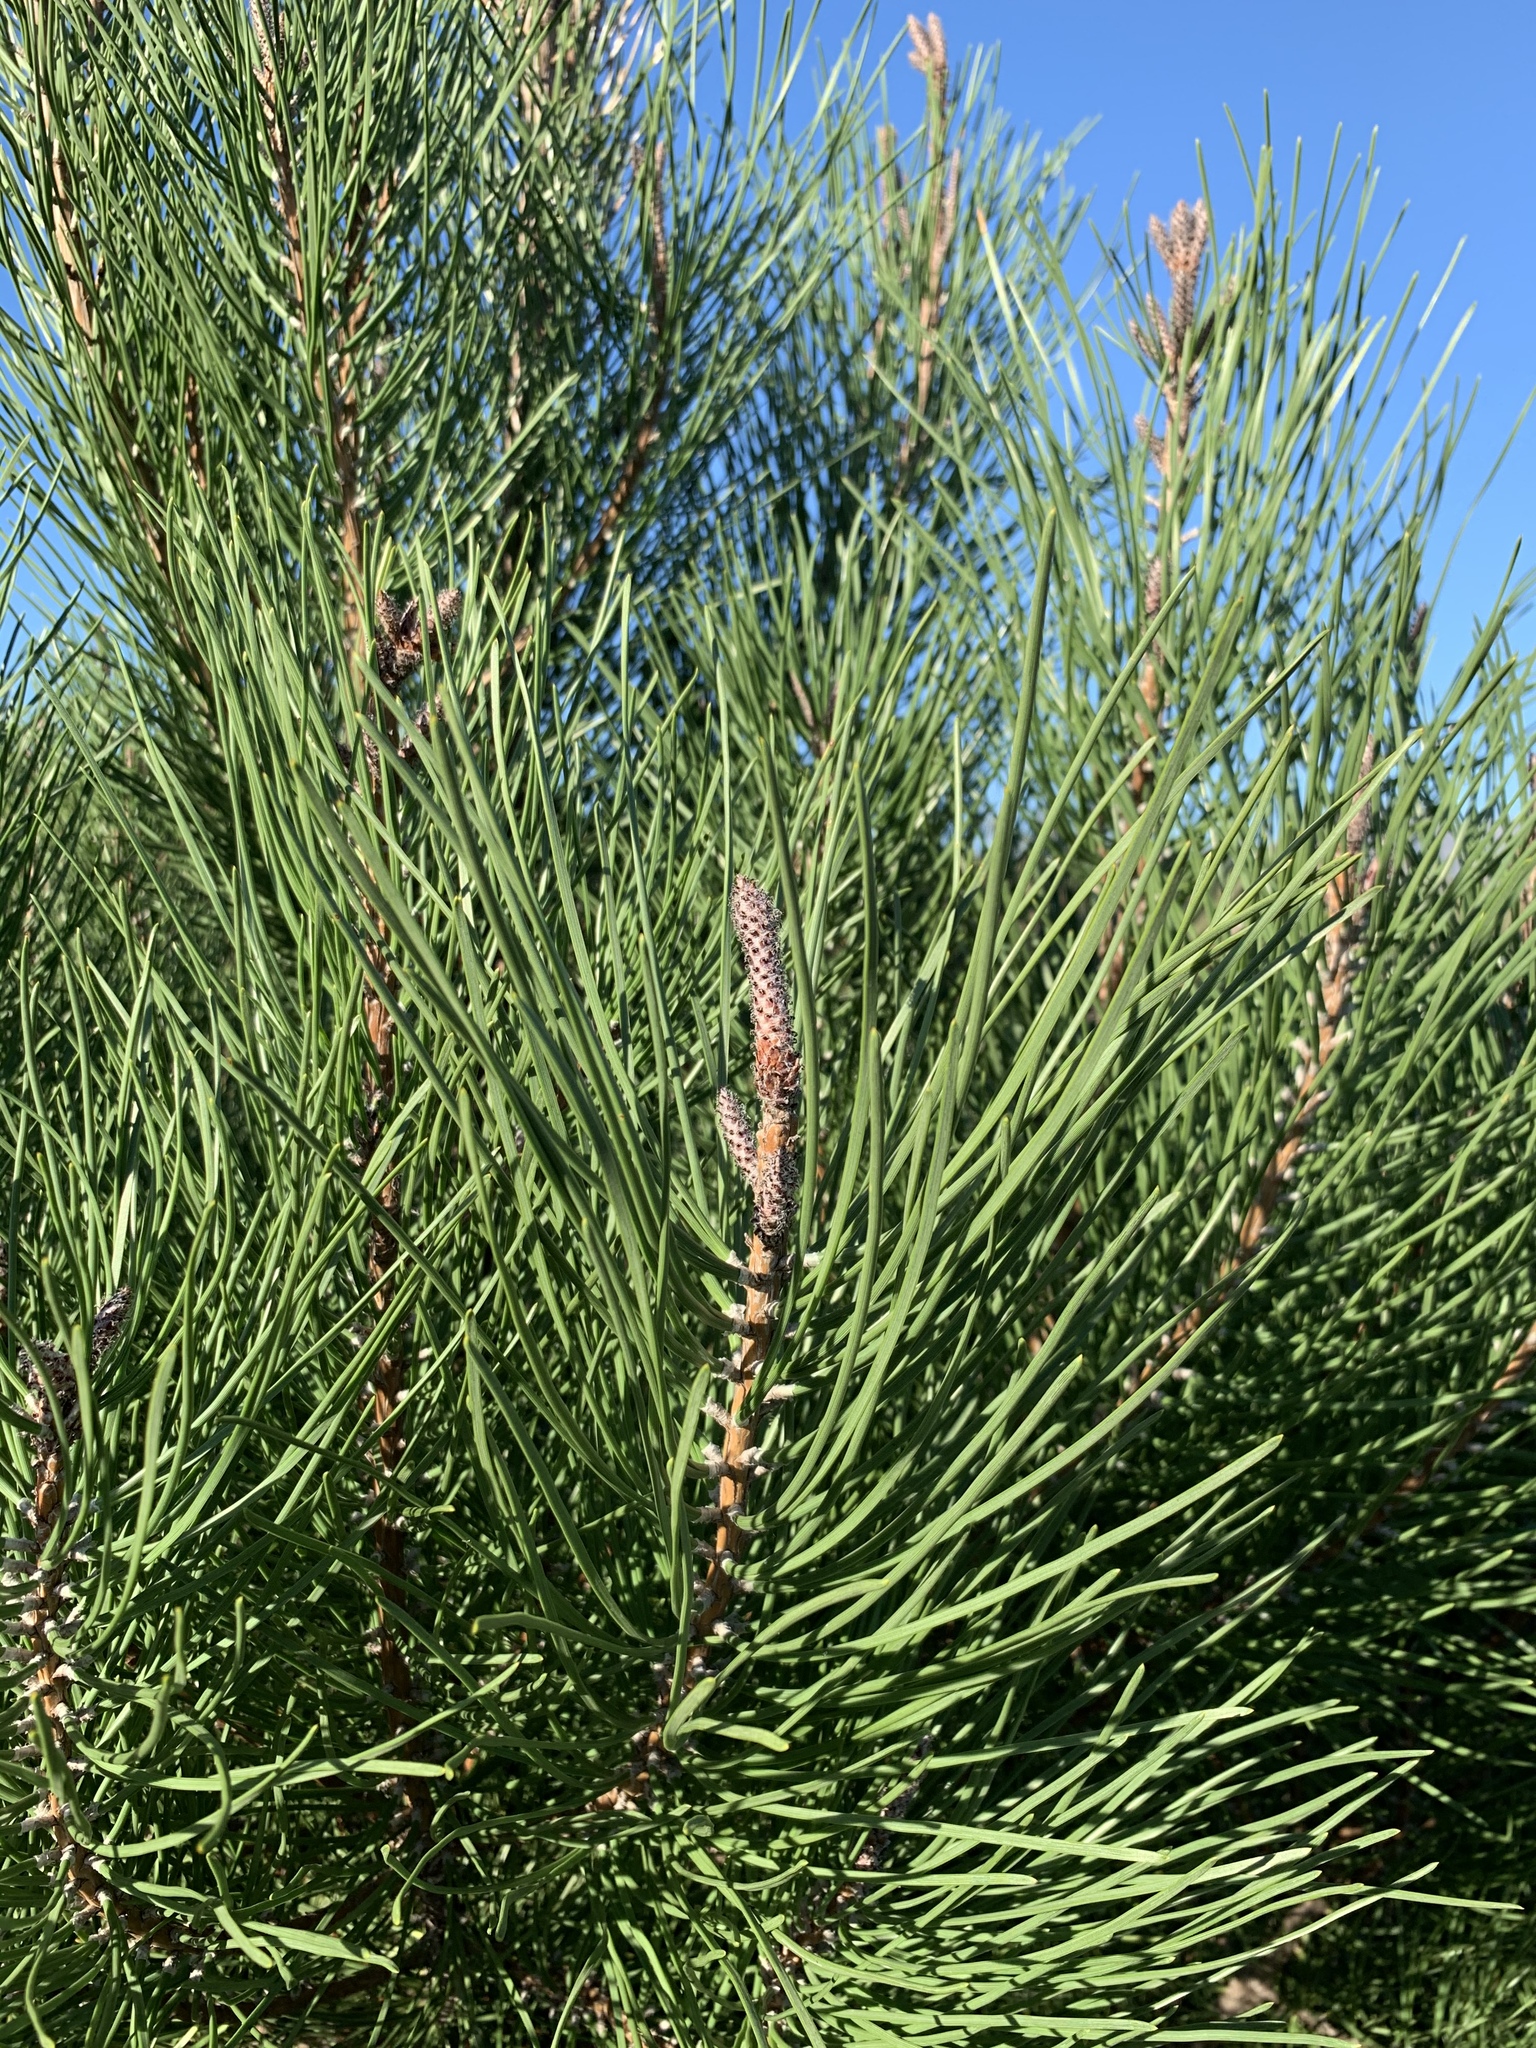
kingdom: Plantae
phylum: Tracheophyta
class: Pinopsida
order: Pinales
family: Pinaceae
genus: Pinus
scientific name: Pinus pinaster
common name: Maritime pine
